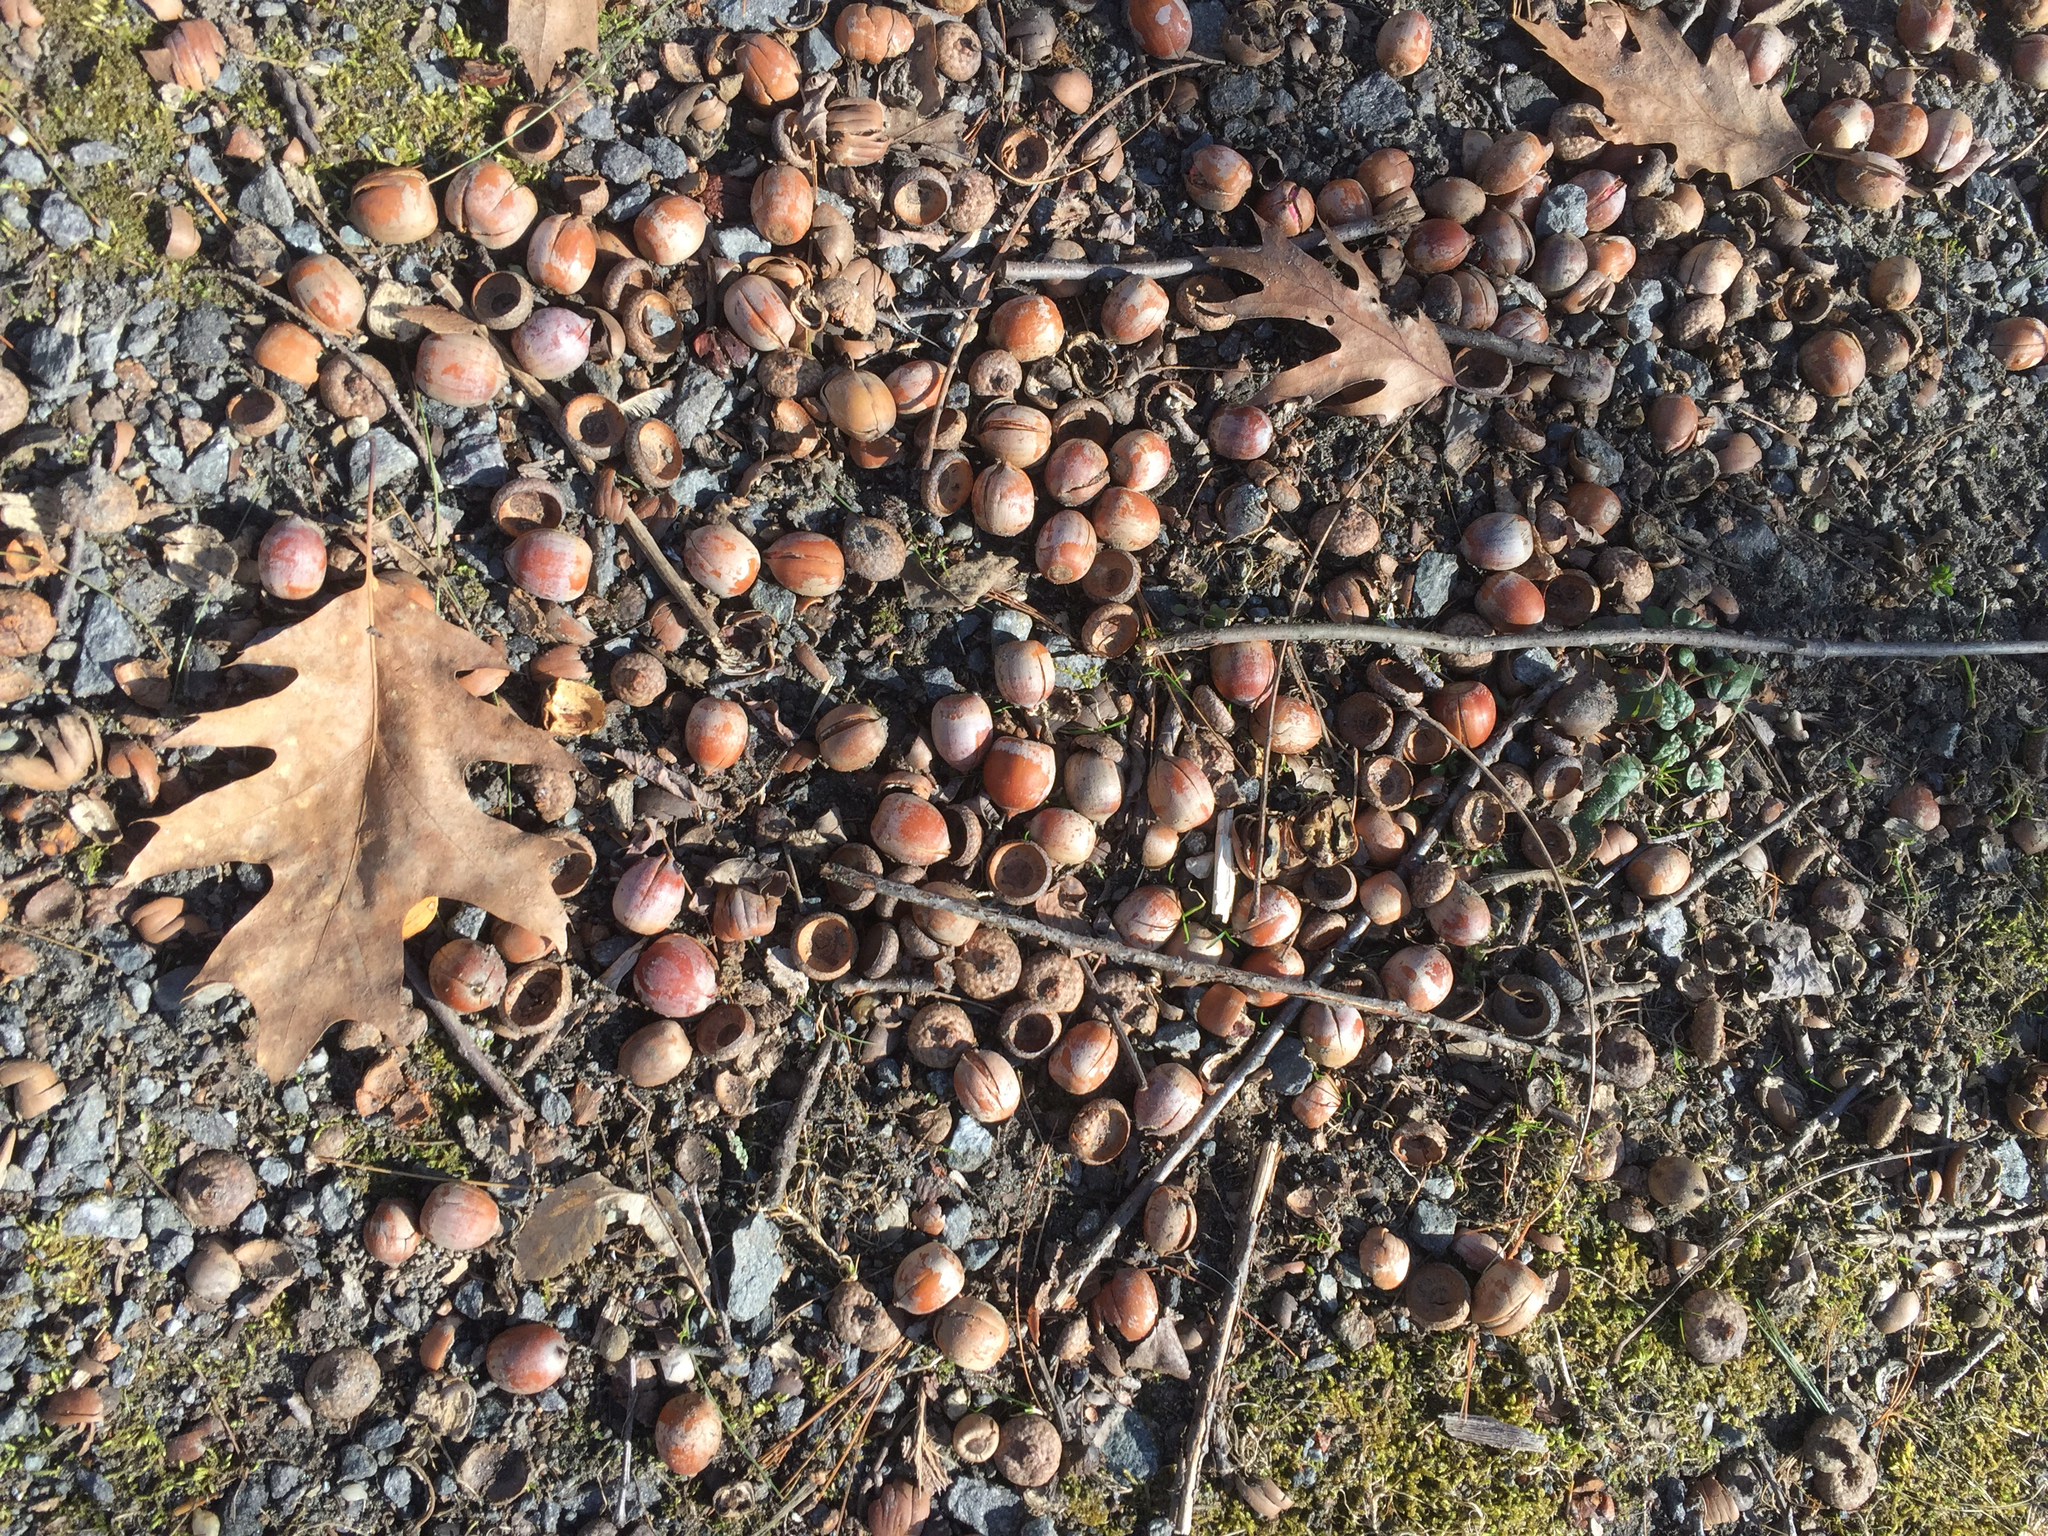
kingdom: Plantae
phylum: Tracheophyta
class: Magnoliopsida
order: Fagales
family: Fagaceae
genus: Quercus
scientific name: Quercus rubra
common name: Red oak
